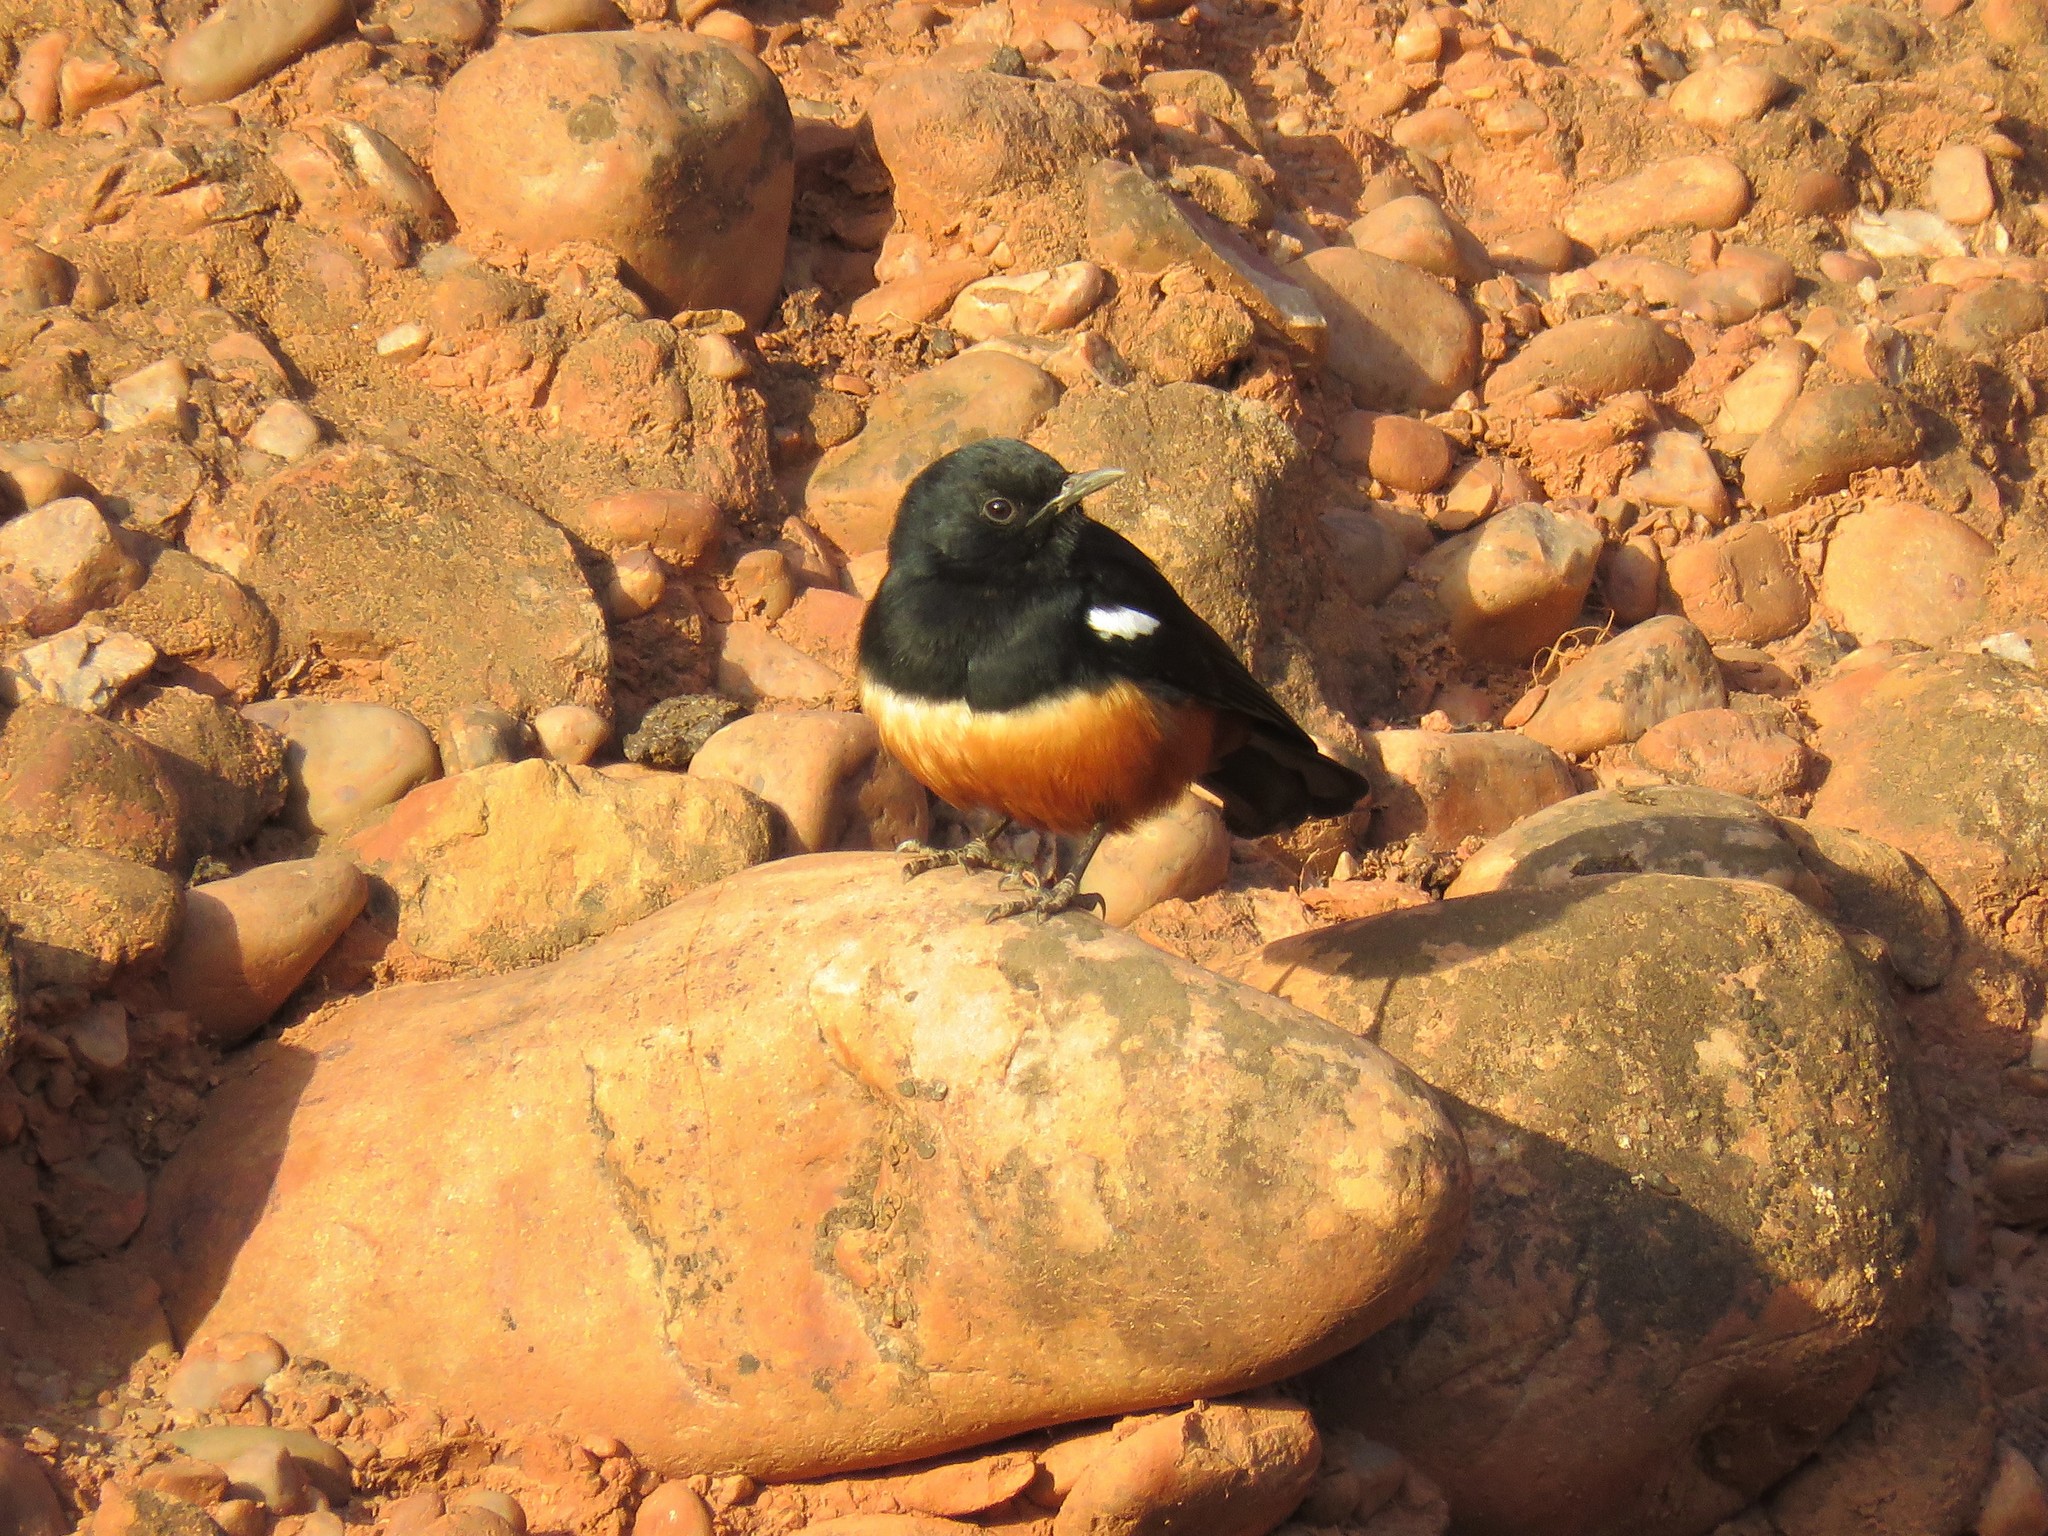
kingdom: Animalia
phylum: Chordata
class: Aves
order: Passeriformes
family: Muscicapidae
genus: Thamnolaea
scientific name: Thamnolaea cinnamomeiventris
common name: Mocking cliff chat
